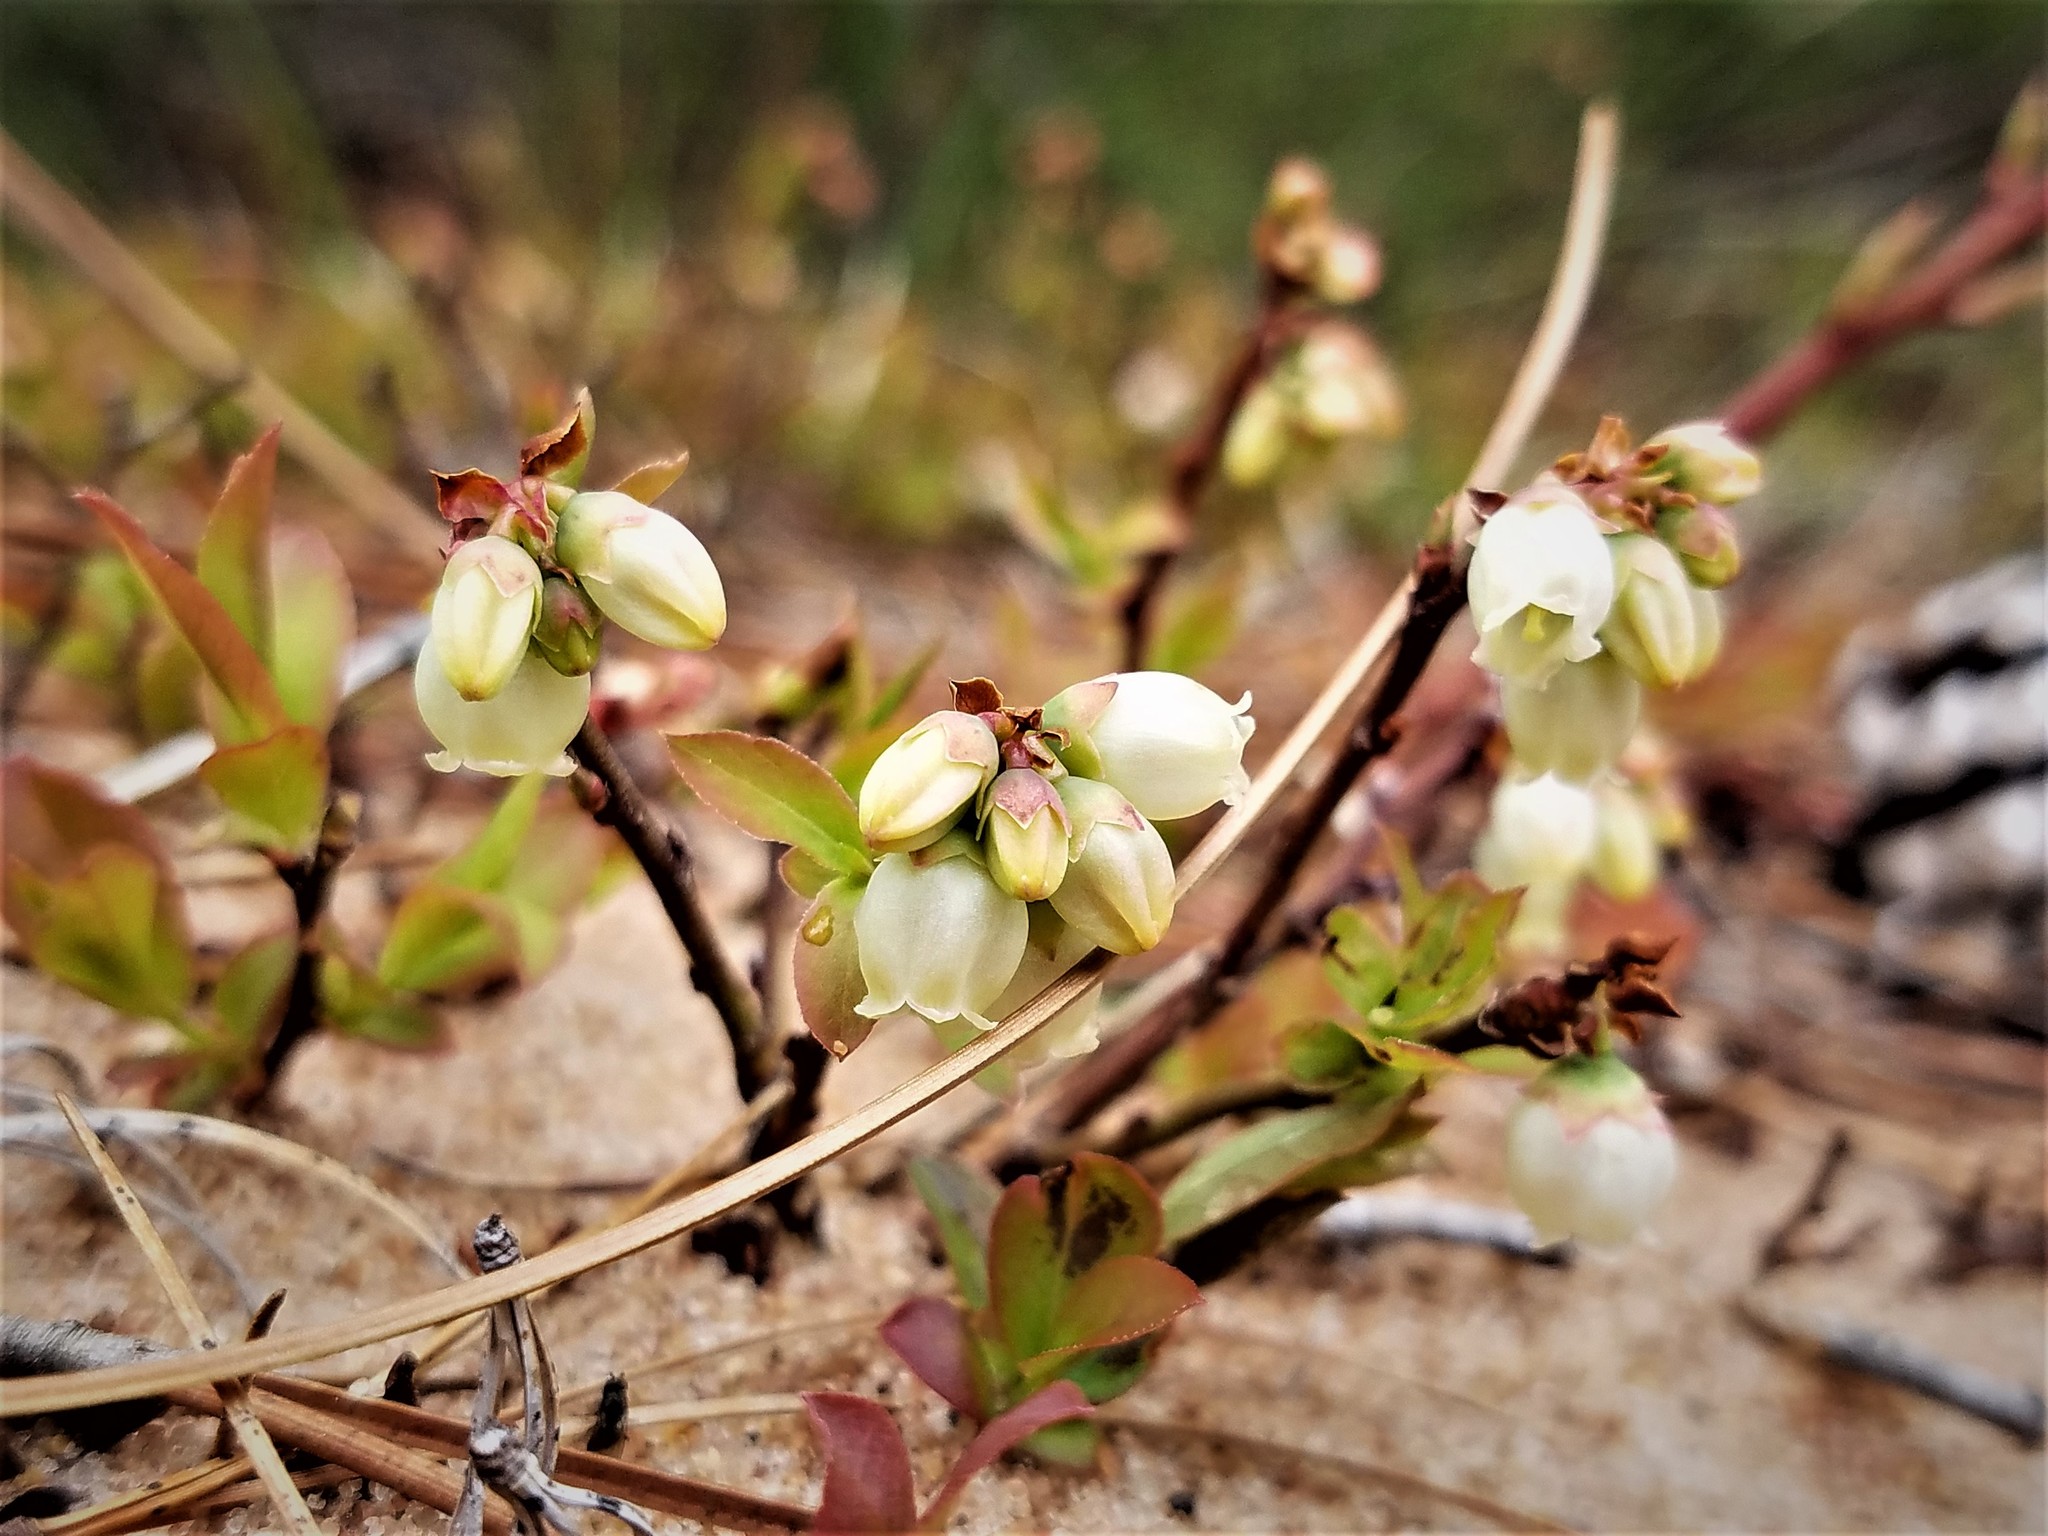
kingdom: Plantae
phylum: Tracheophyta
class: Magnoliopsida
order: Ericales
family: Ericaceae
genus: Vaccinium
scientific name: Vaccinium angustifolium
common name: Early lowbush blueberry
